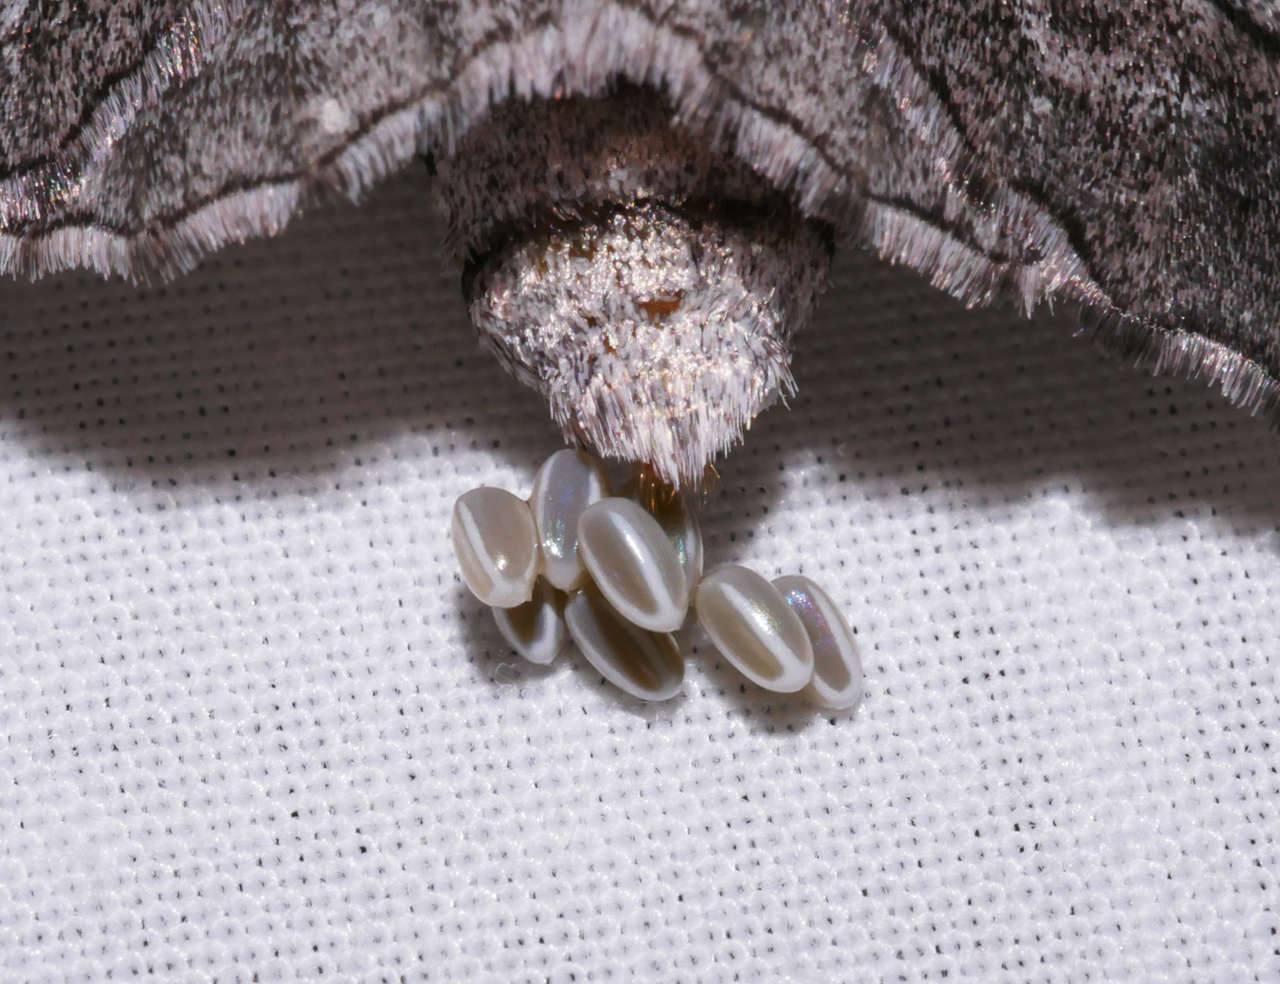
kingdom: Animalia
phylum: Arthropoda
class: Insecta
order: Lepidoptera
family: Geometridae
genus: Hypobapta
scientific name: Hypobapta diffundens
